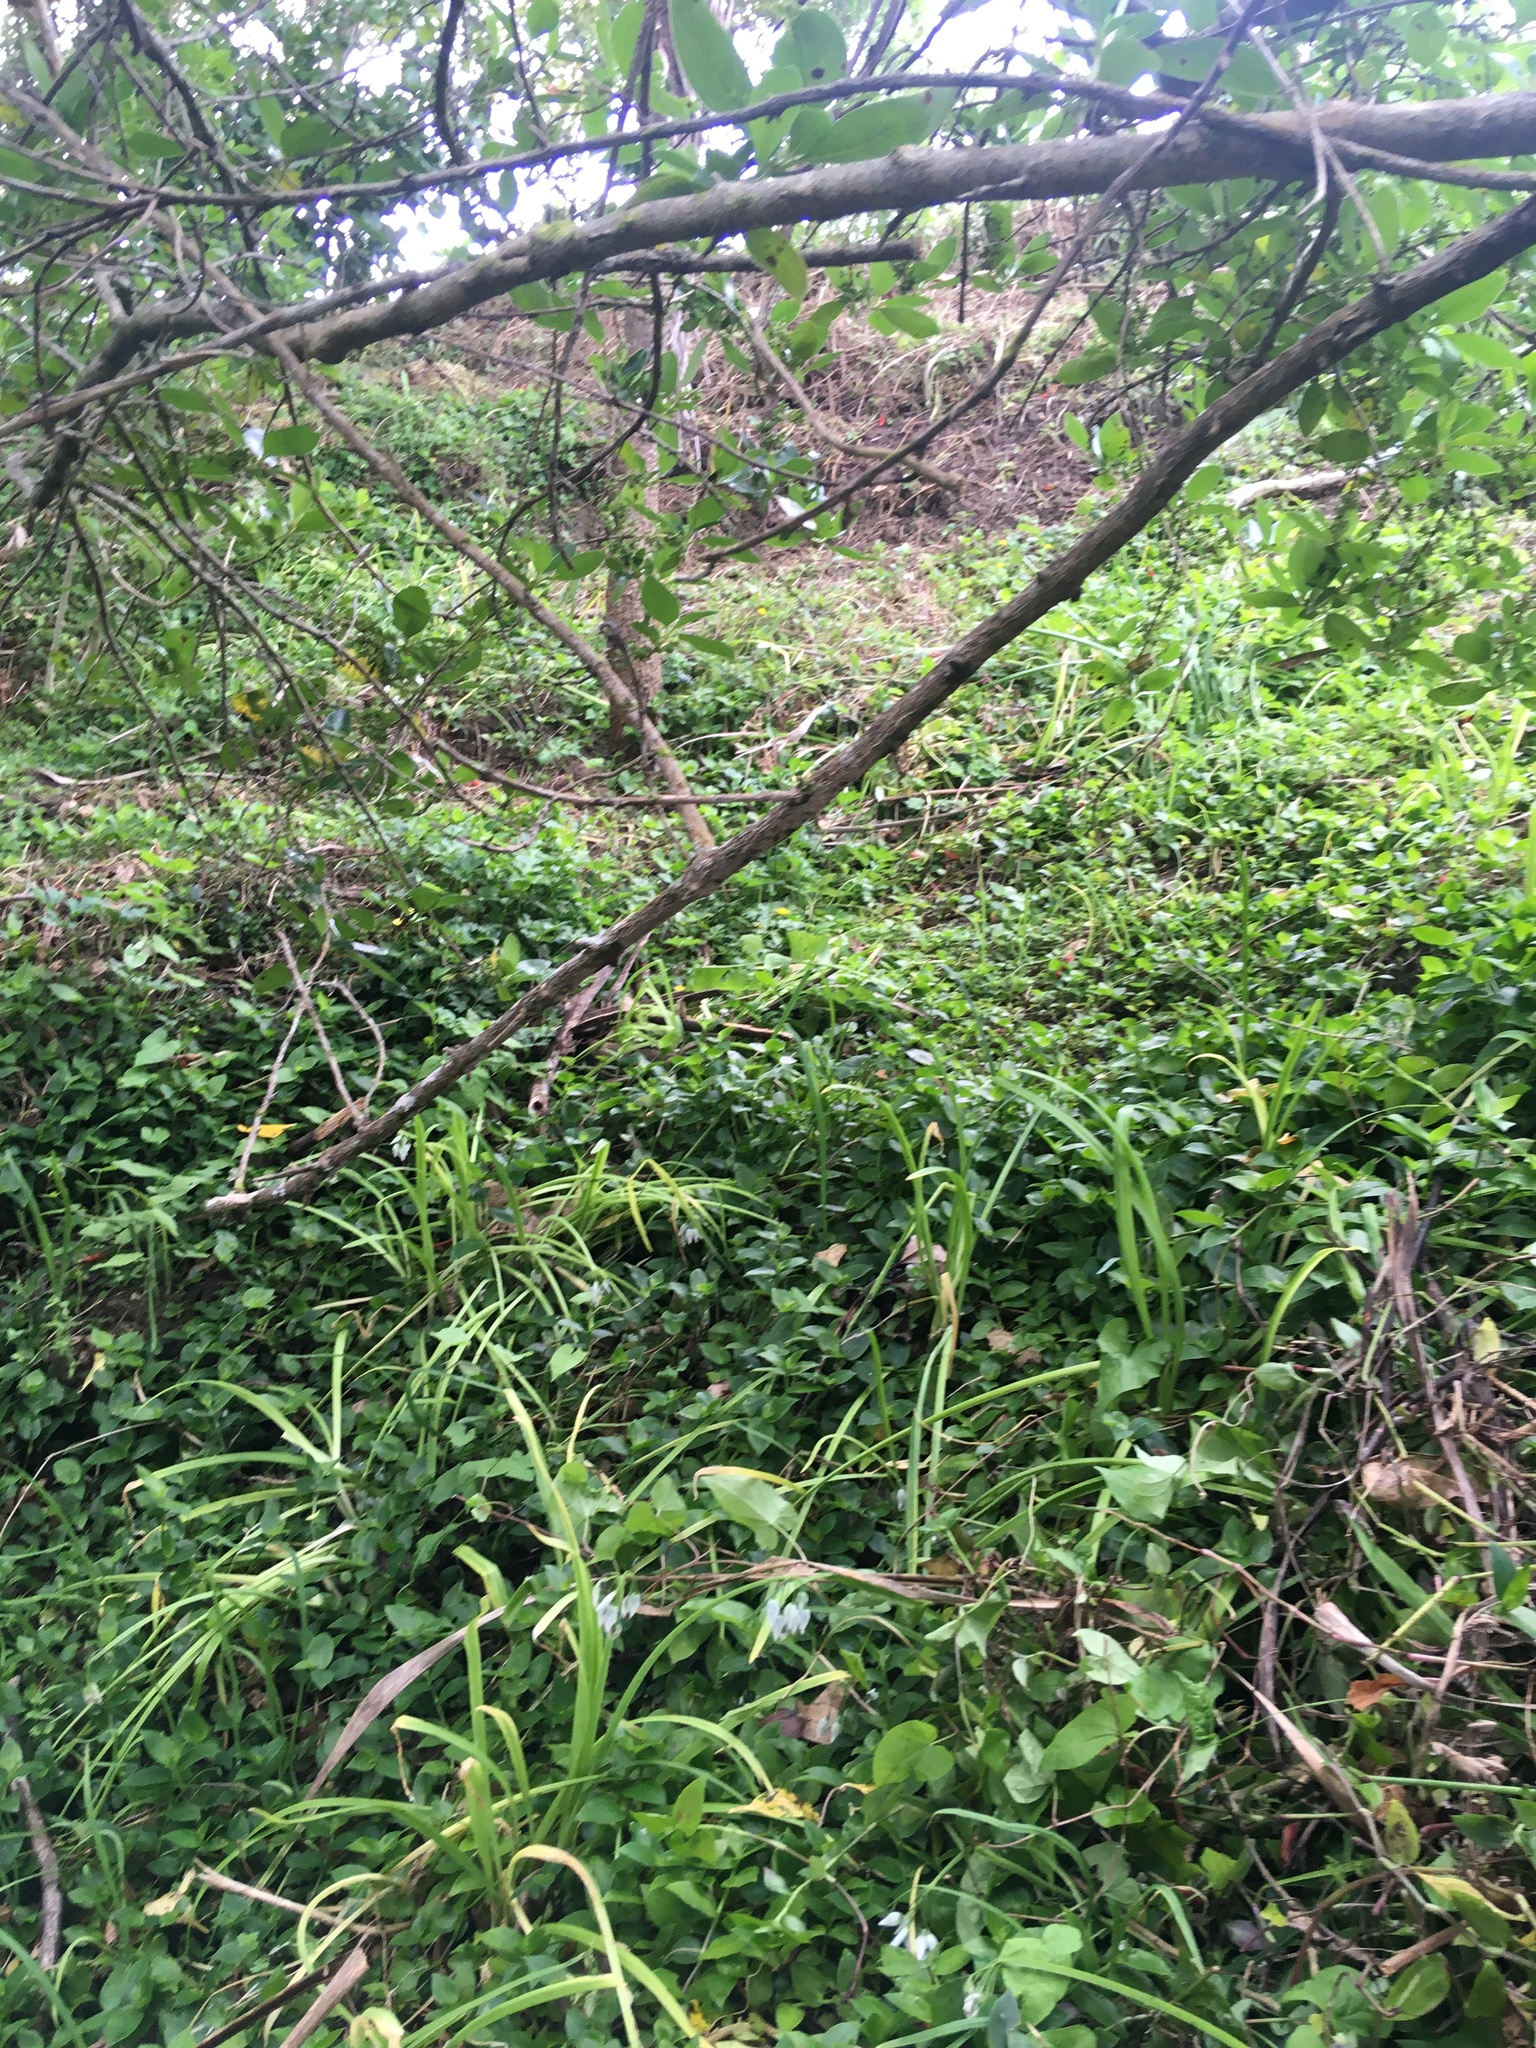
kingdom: Plantae
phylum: Tracheophyta
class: Liliopsida
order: Commelinales
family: Commelinaceae
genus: Tradescantia
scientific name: Tradescantia fluminensis
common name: Wandering-jew
